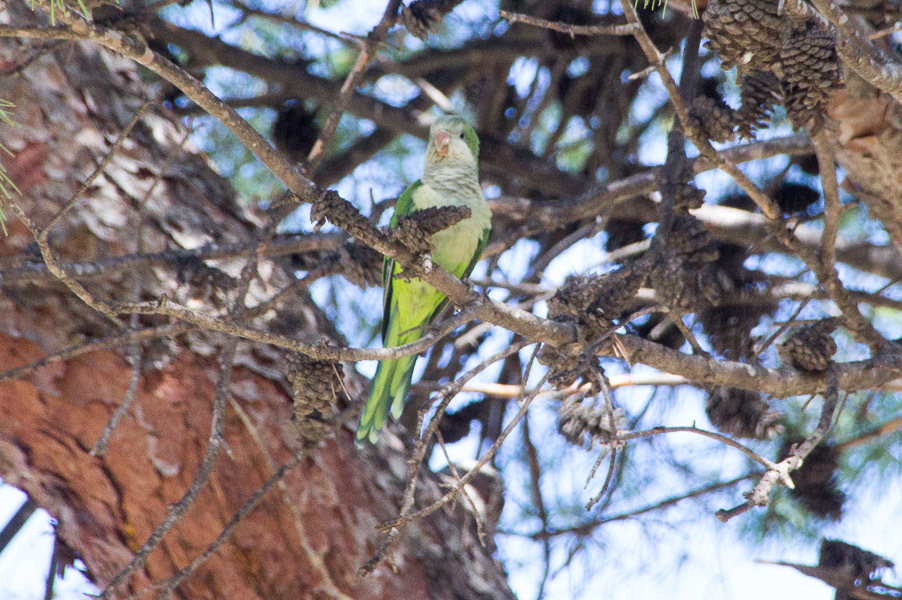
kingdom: Animalia
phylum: Chordata
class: Aves
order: Psittaciformes
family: Psittacidae
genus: Myiopsitta
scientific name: Myiopsitta monachus
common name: Monk parakeet
